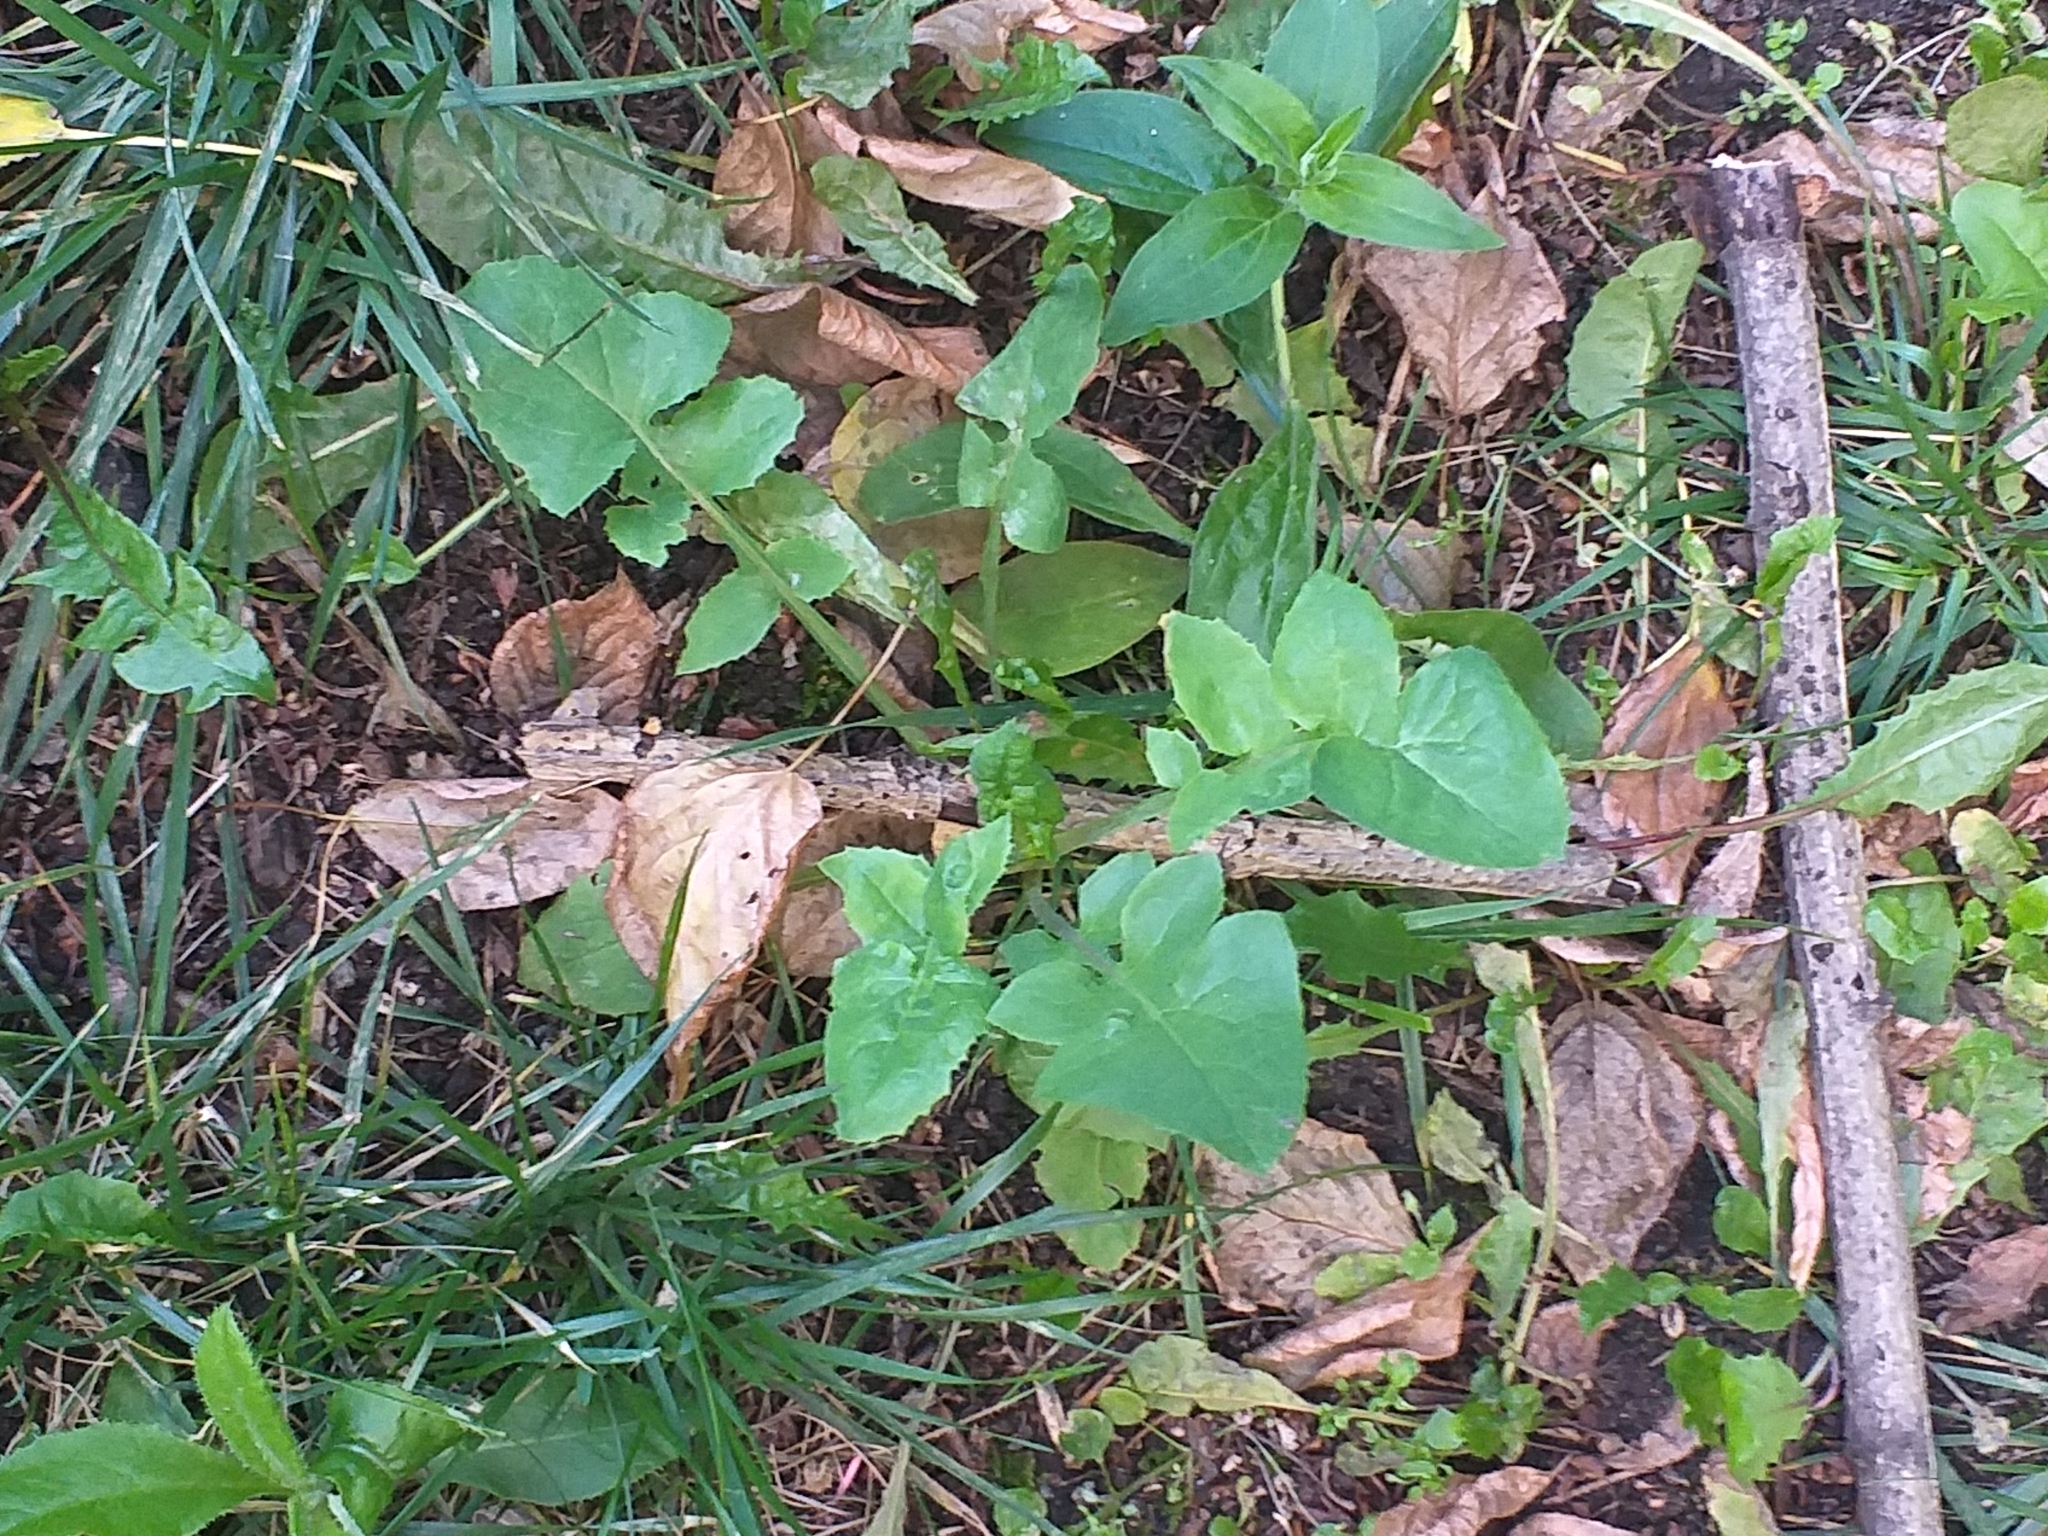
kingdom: Plantae
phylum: Tracheophyta
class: Magnoliopsida
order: Asterales
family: Asteraceae
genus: Sonchus
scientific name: Sonchus oleraceus
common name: Common sowthistle
